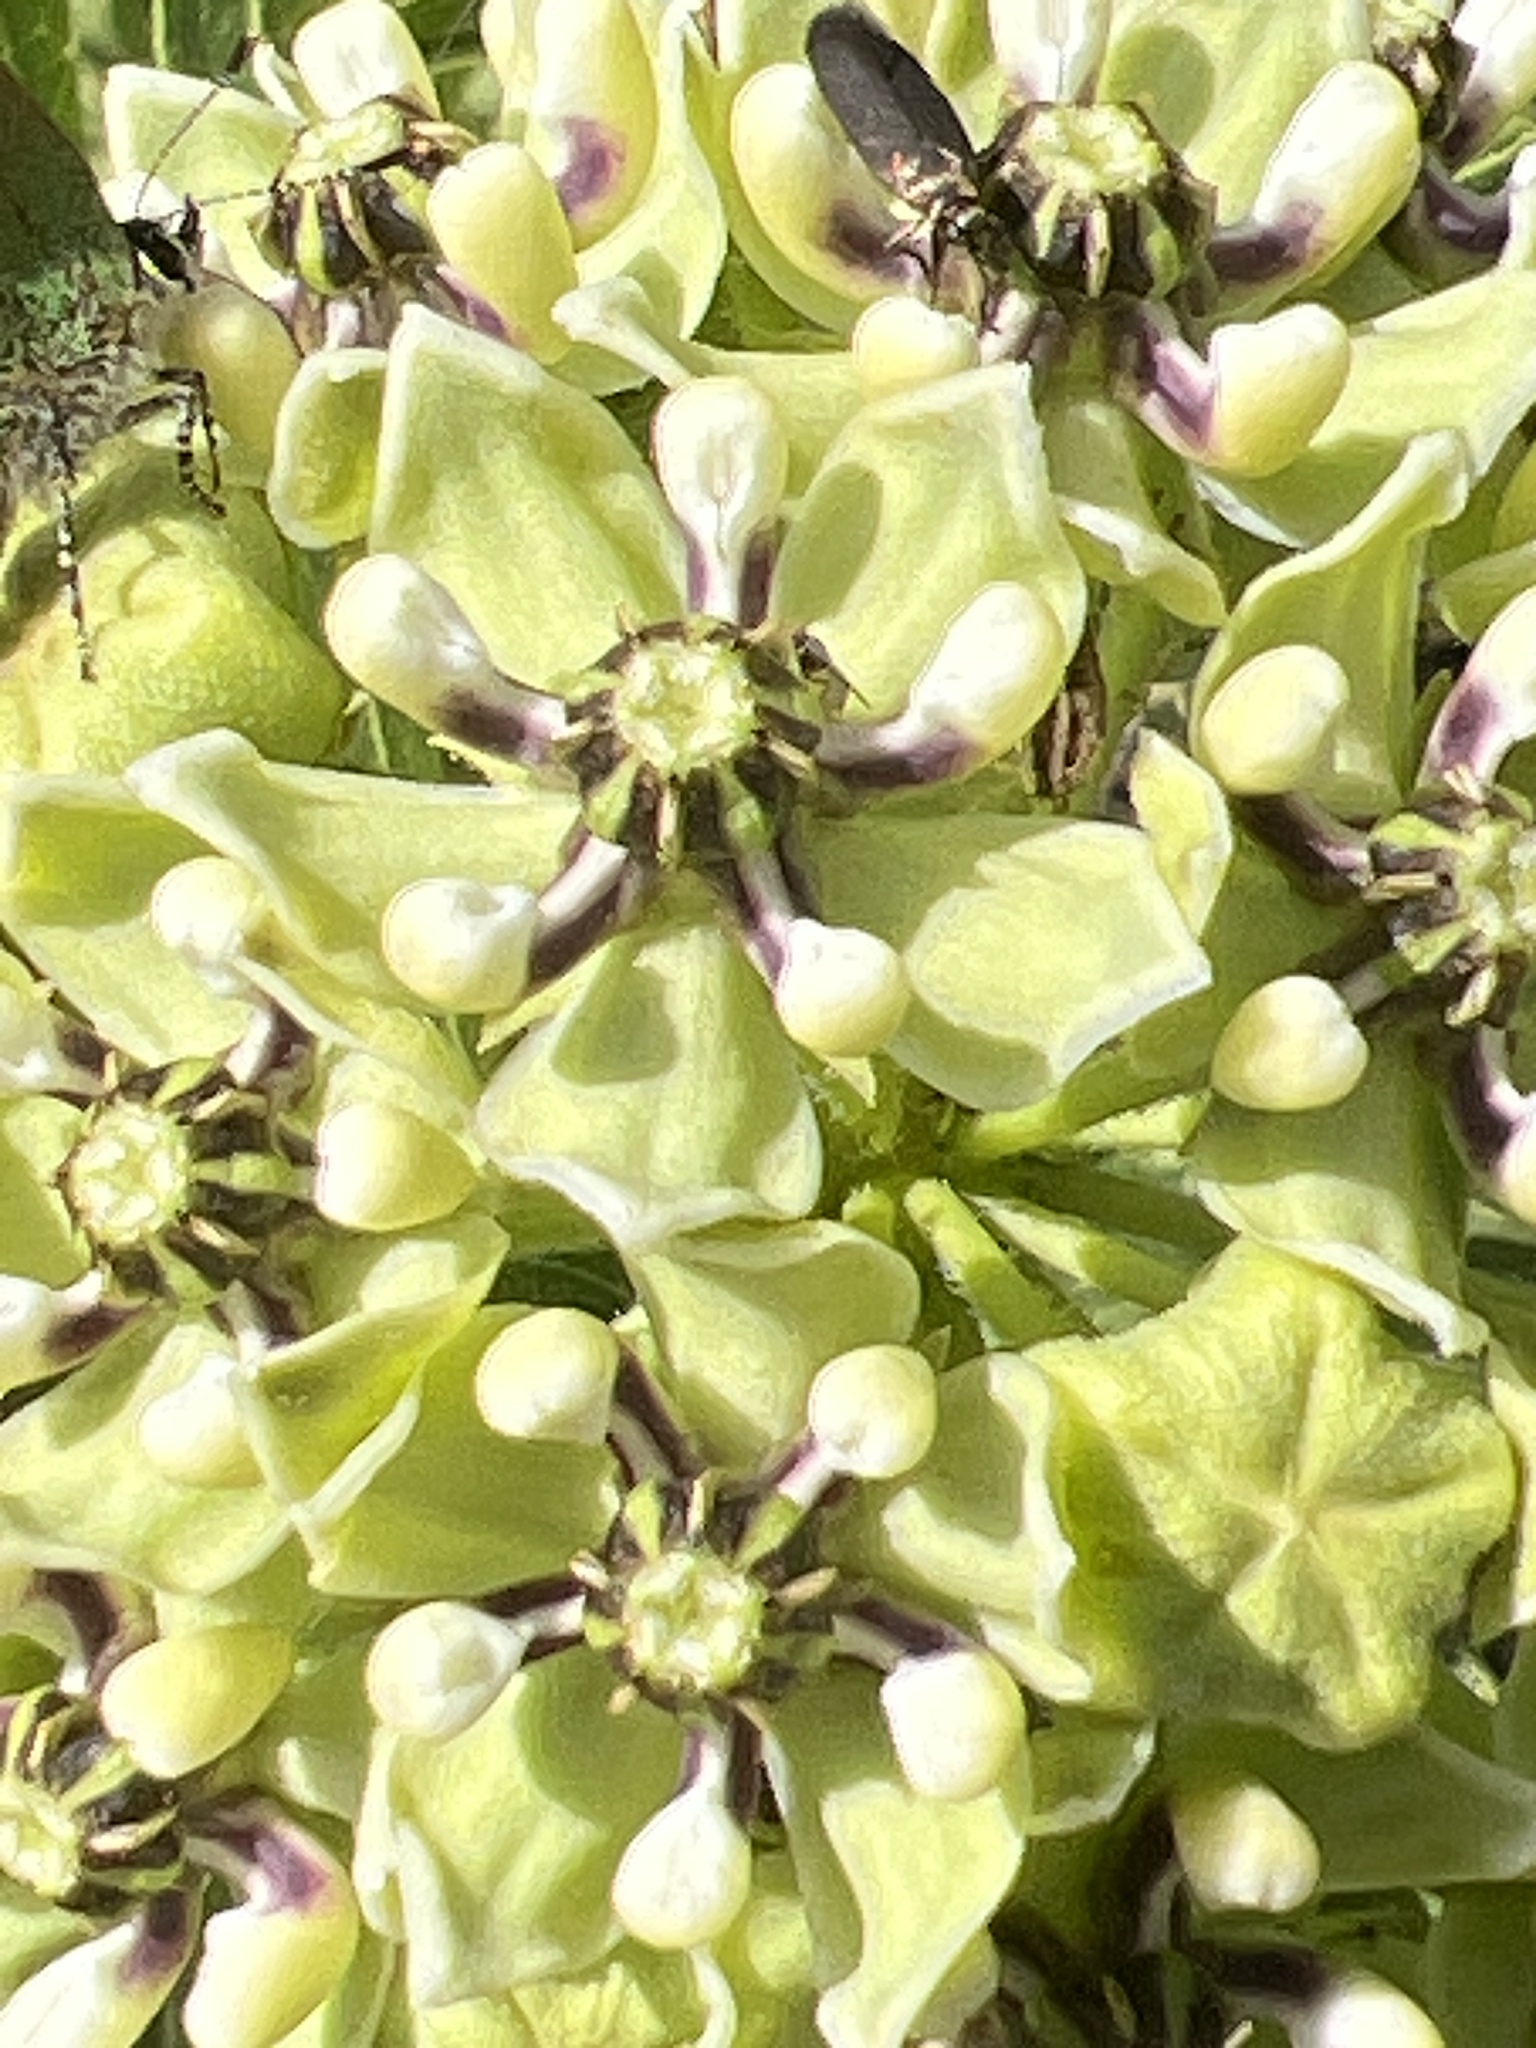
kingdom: Plantae
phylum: Tracheophyta
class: Magnoliopsida
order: Gentianales
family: Apocynaceae
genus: Asclepias
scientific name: Asclepias asperula
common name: Antelope horns
